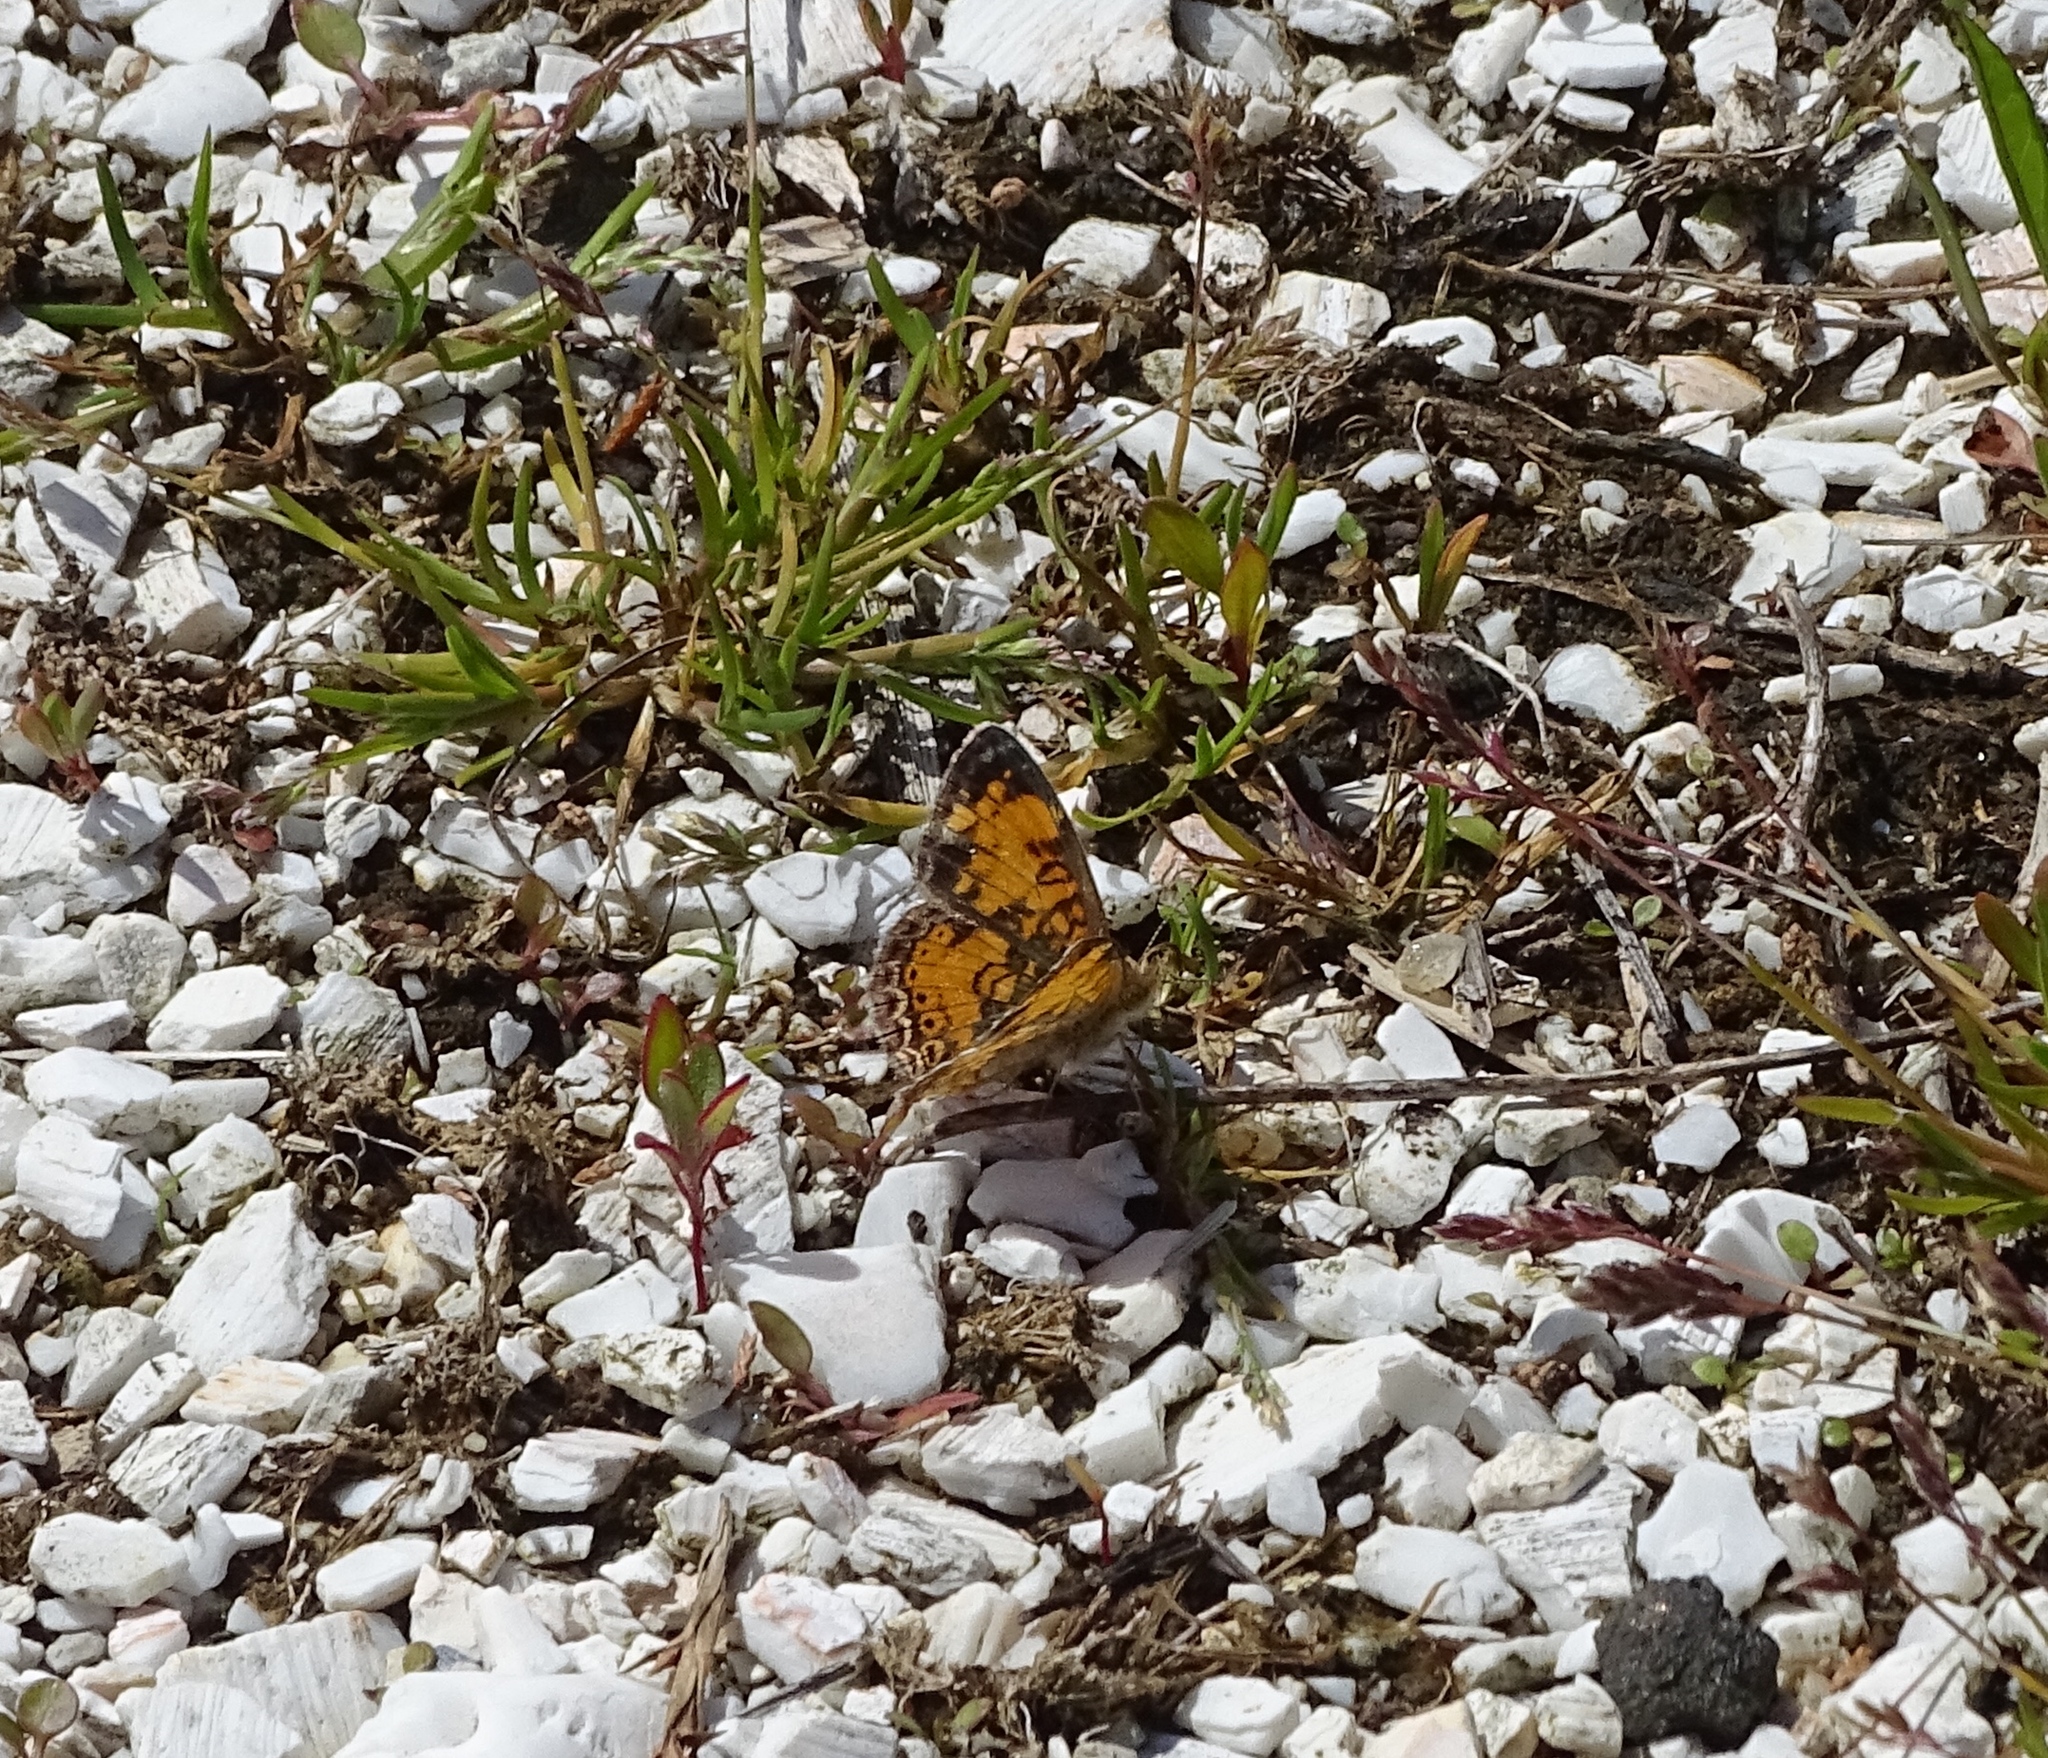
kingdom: Animalia
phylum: Arthropoda
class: Insecta
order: Lepidoptera
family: Nymphalidae
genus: Phyciodes
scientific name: Phyciodes tharos
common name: Pearl crescent
